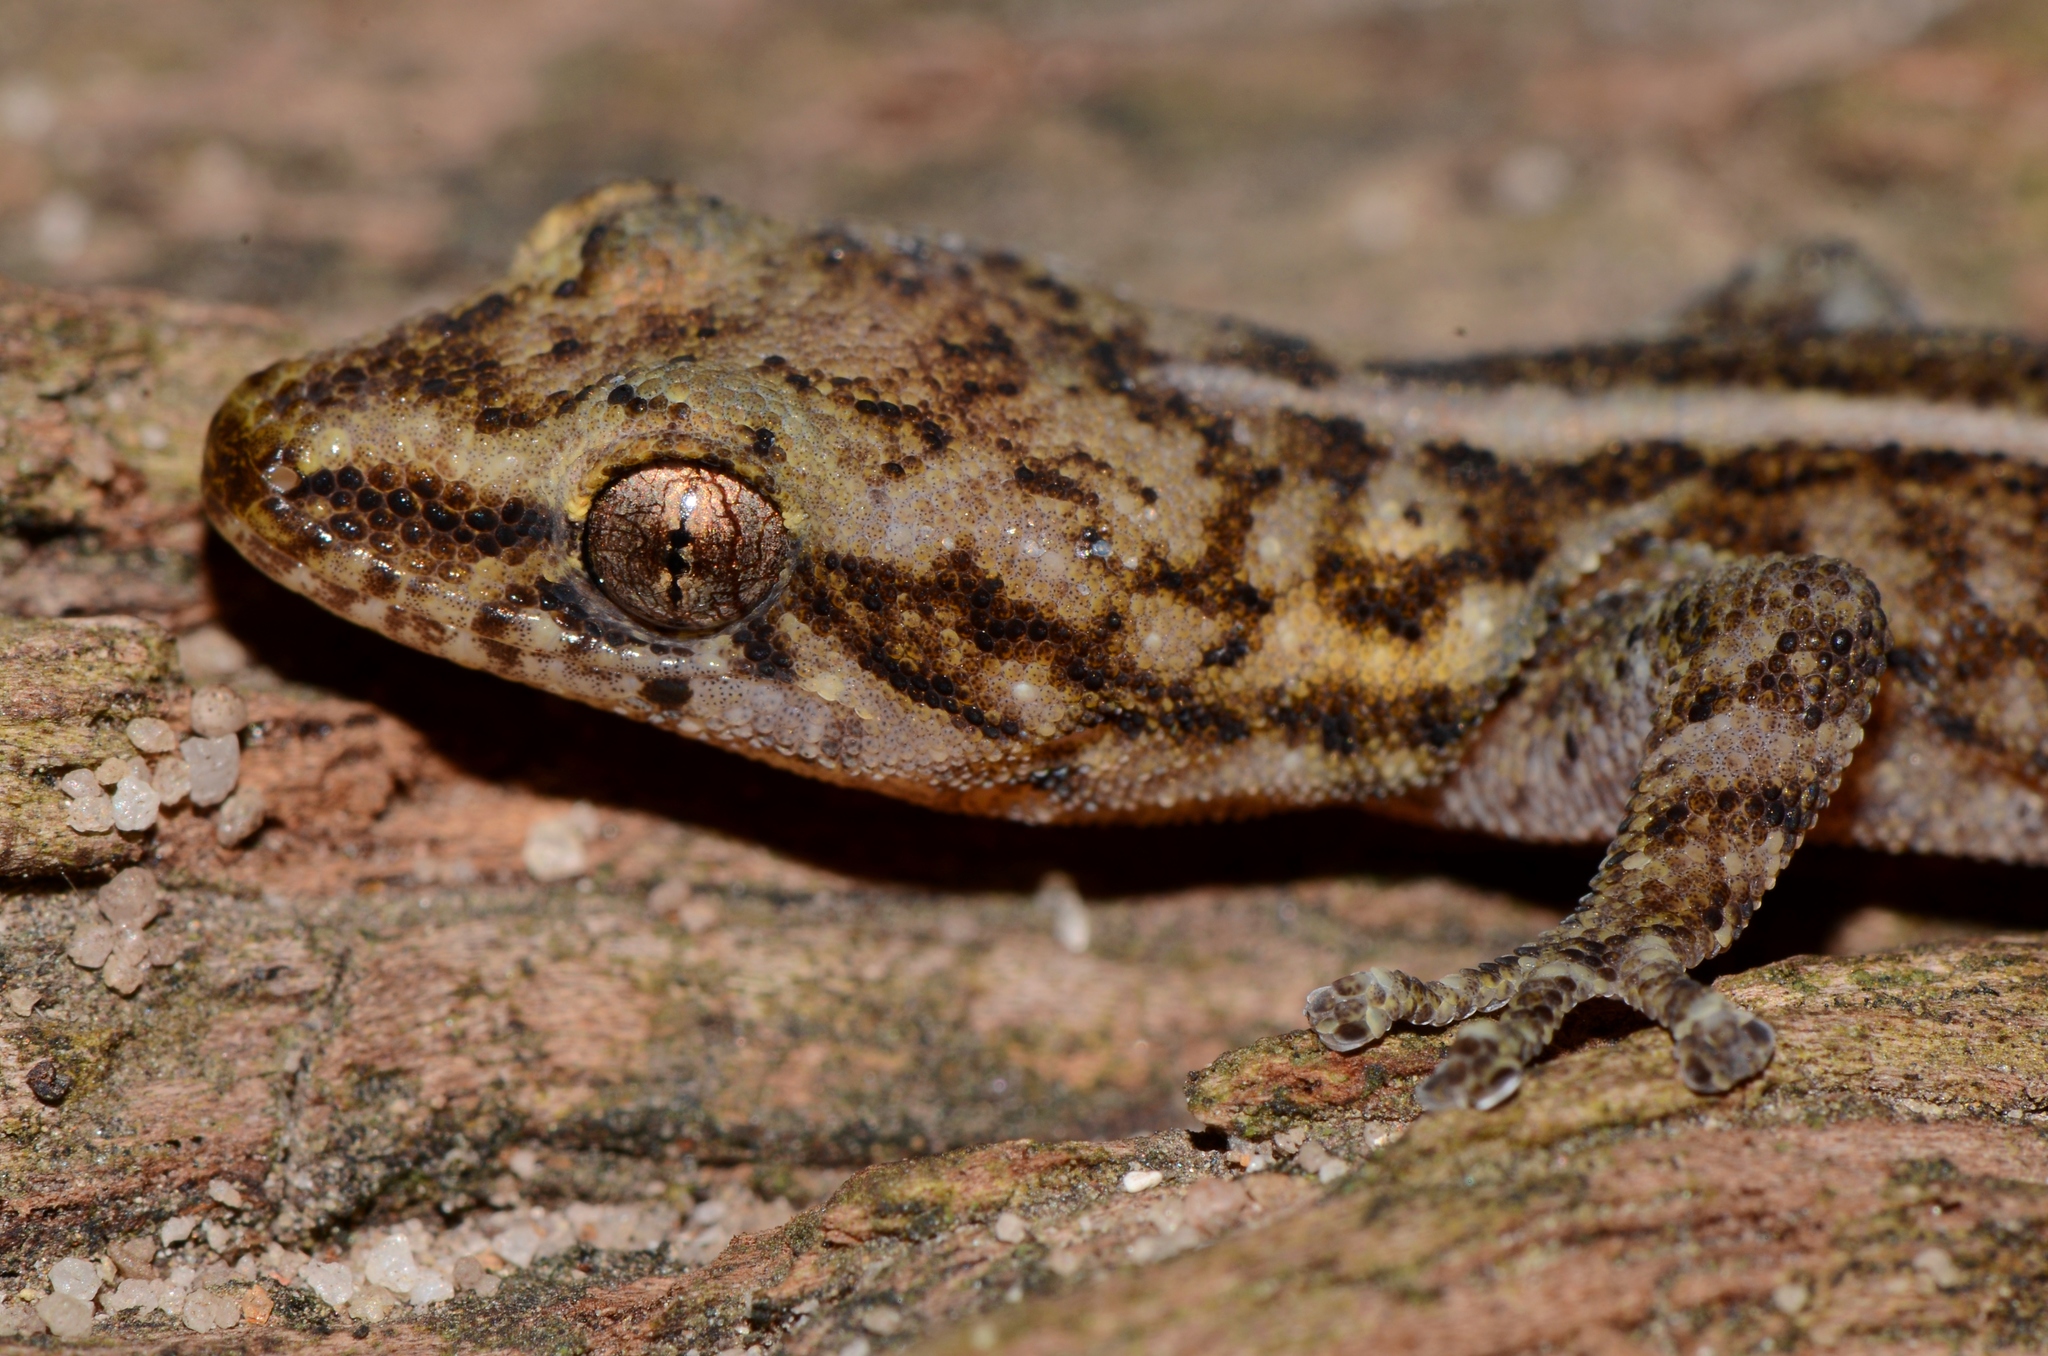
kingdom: Animalia
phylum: Chordata
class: Squamata
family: Gekkonidae
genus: Afrogecko
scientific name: Afrogecko porphyreus
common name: Marbled leaf-toed gecko
